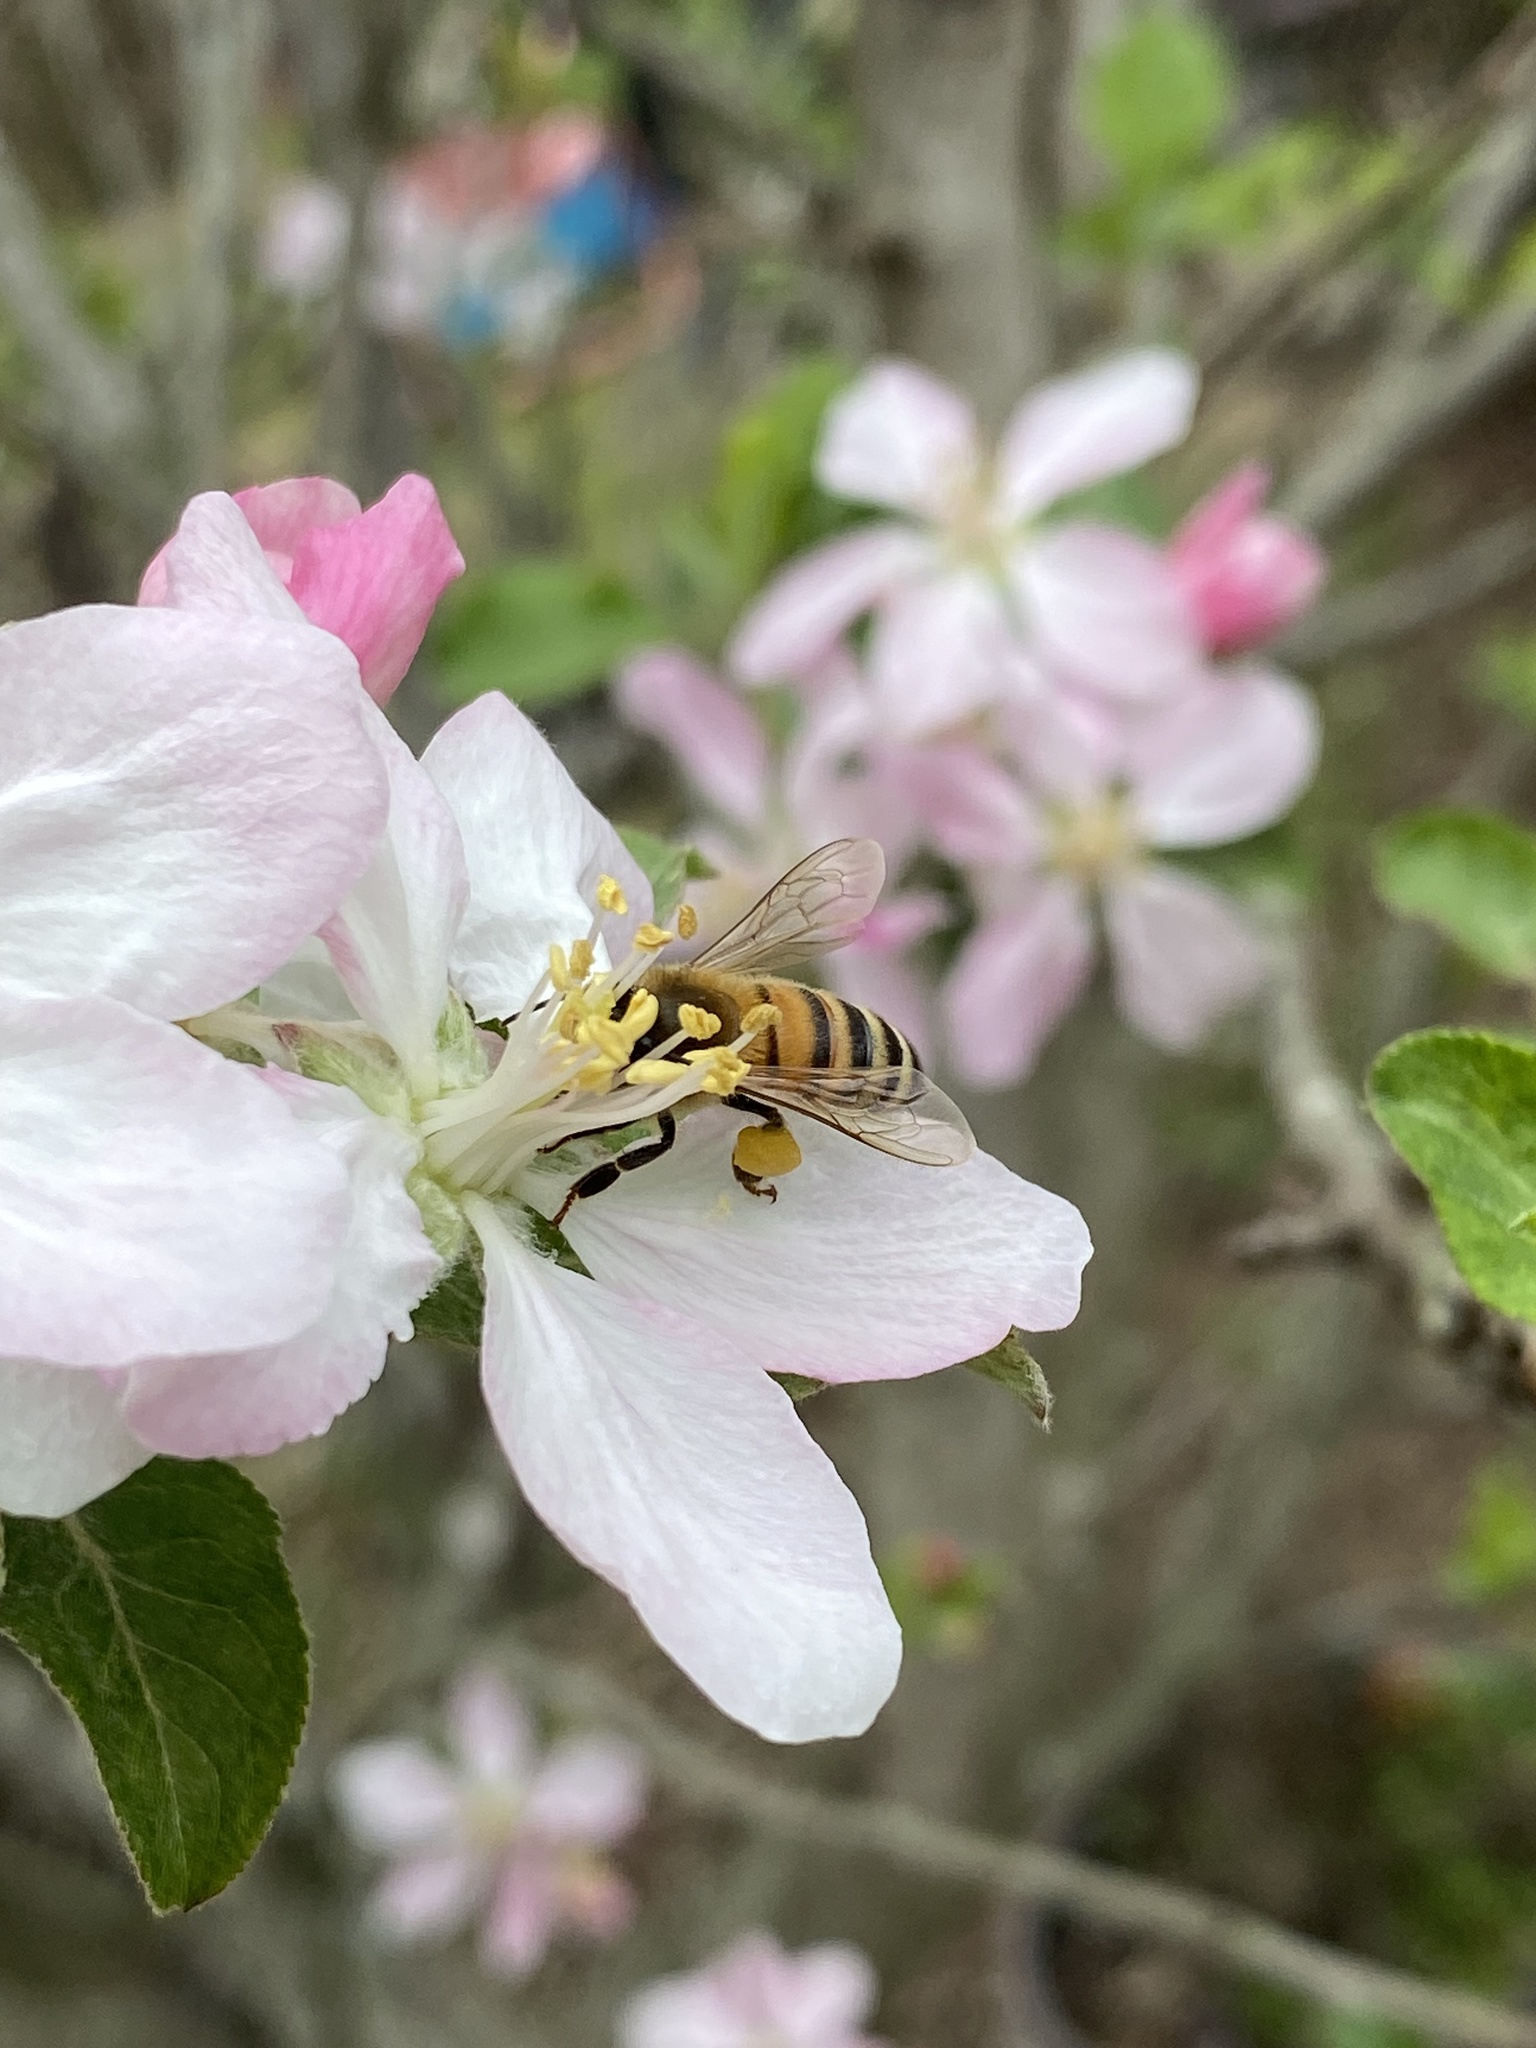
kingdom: Animalia
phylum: Arthropoda
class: Insecta
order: Hymenoptera
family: Apidae
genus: Apis
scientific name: Apis mellifera
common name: Honey bee
